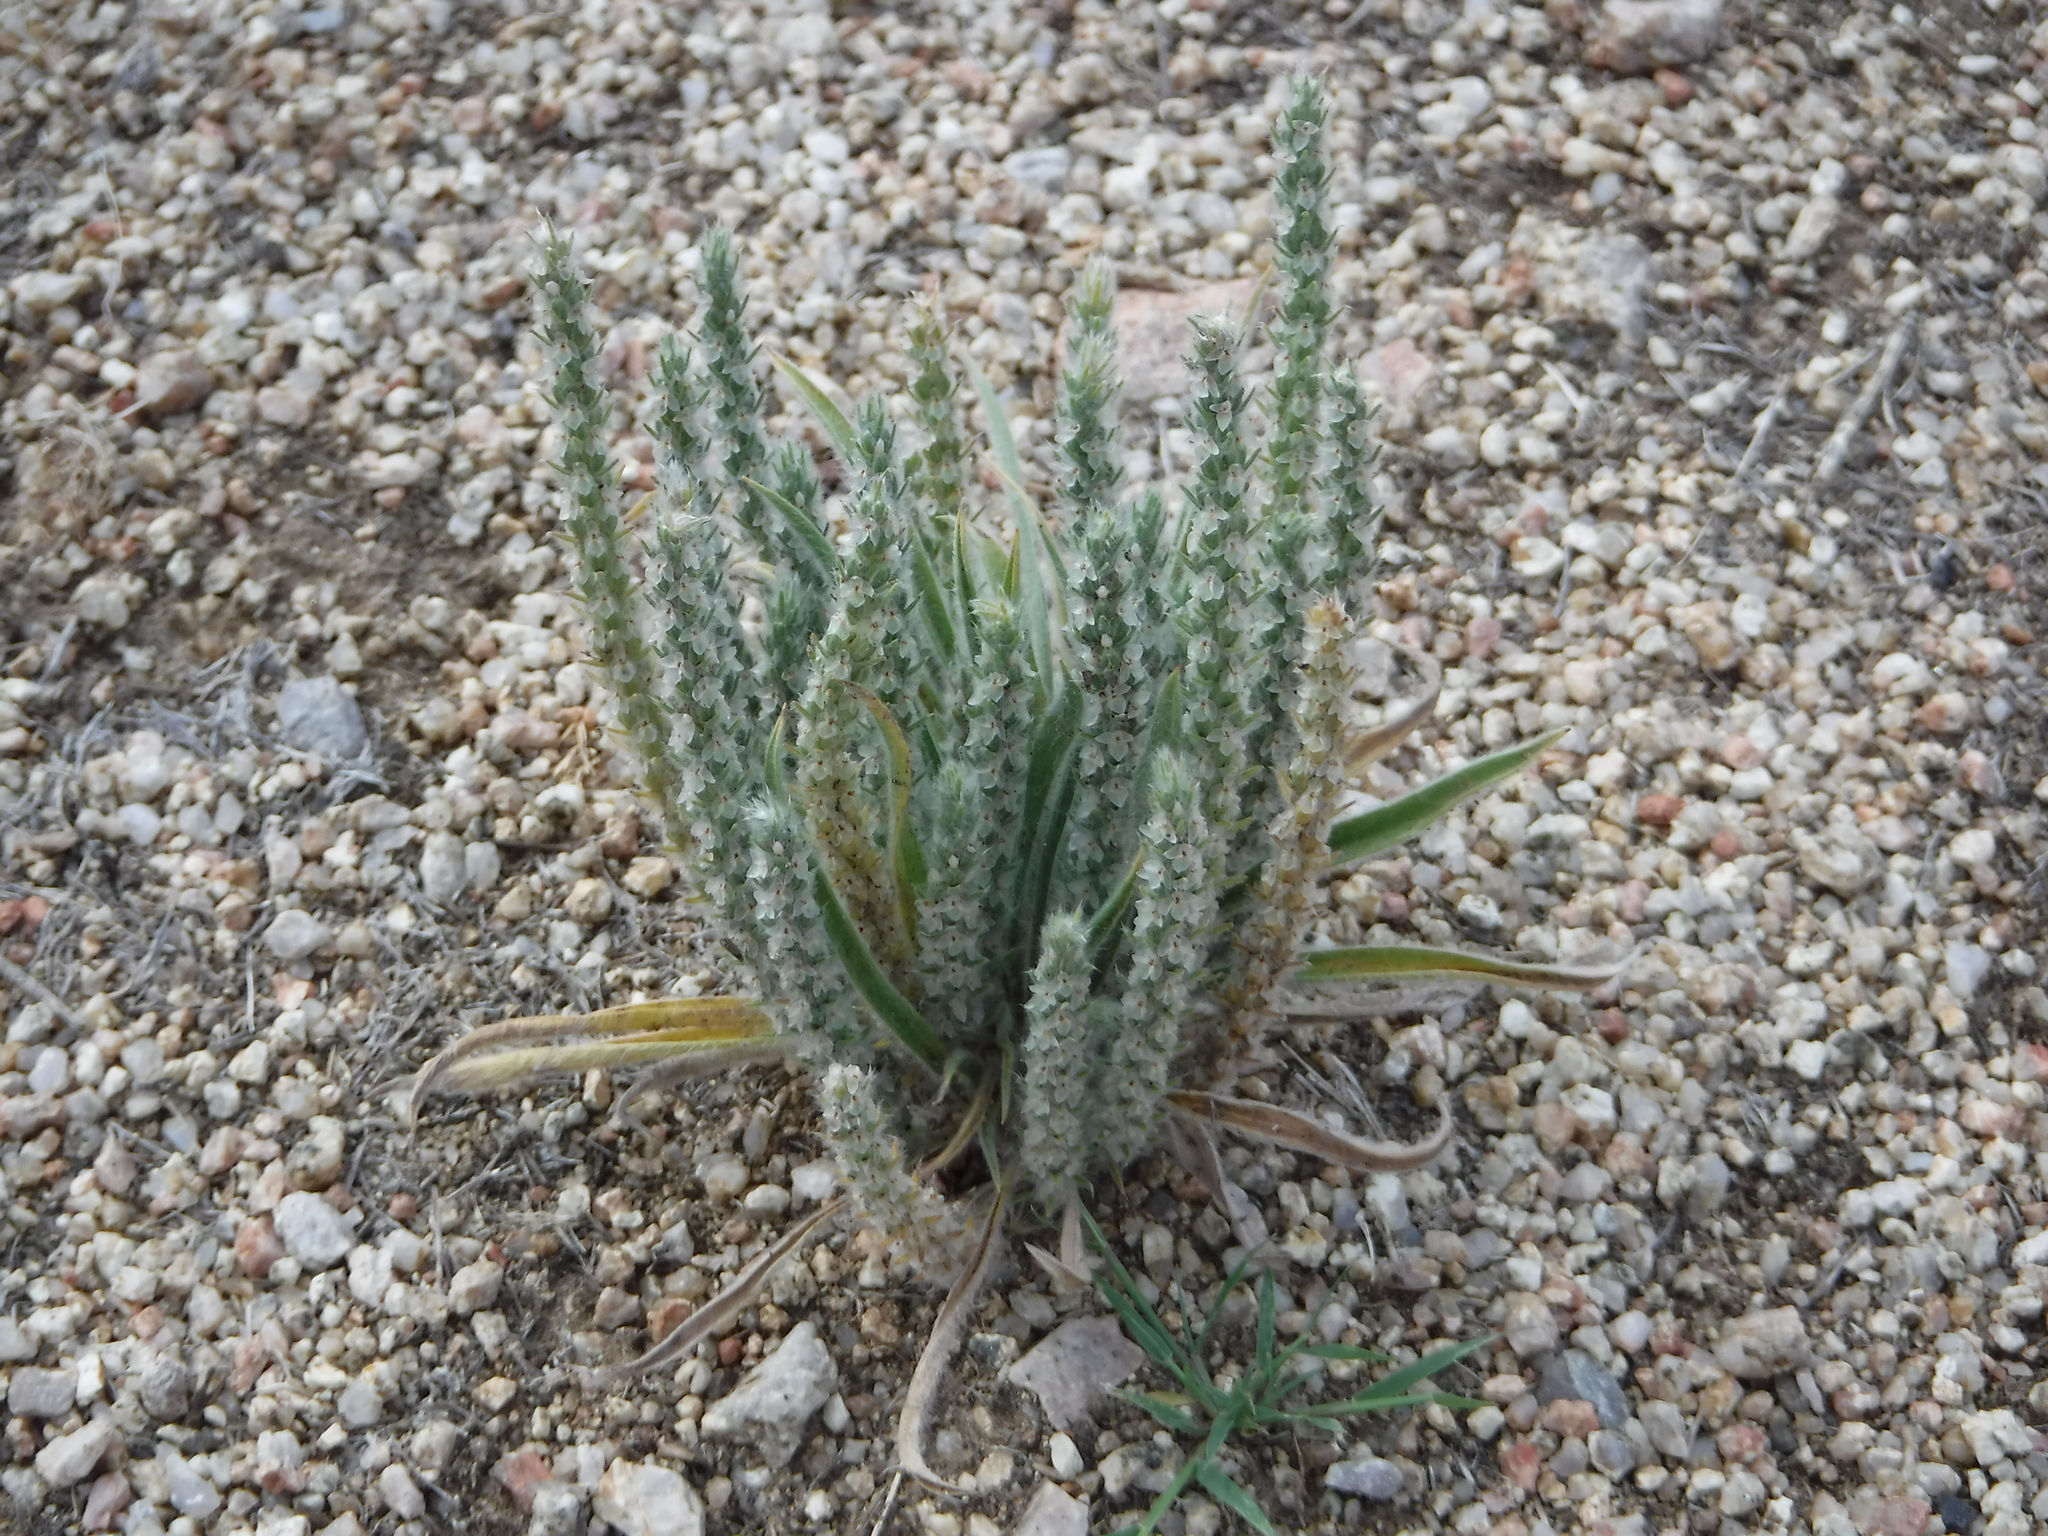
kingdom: Plantae
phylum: Tracheophyta
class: Magnoliopsida
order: Lamiales
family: Plantaginaceae
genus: Plantago
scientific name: Plantago patagonica
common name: Patagonia indian-wheat
